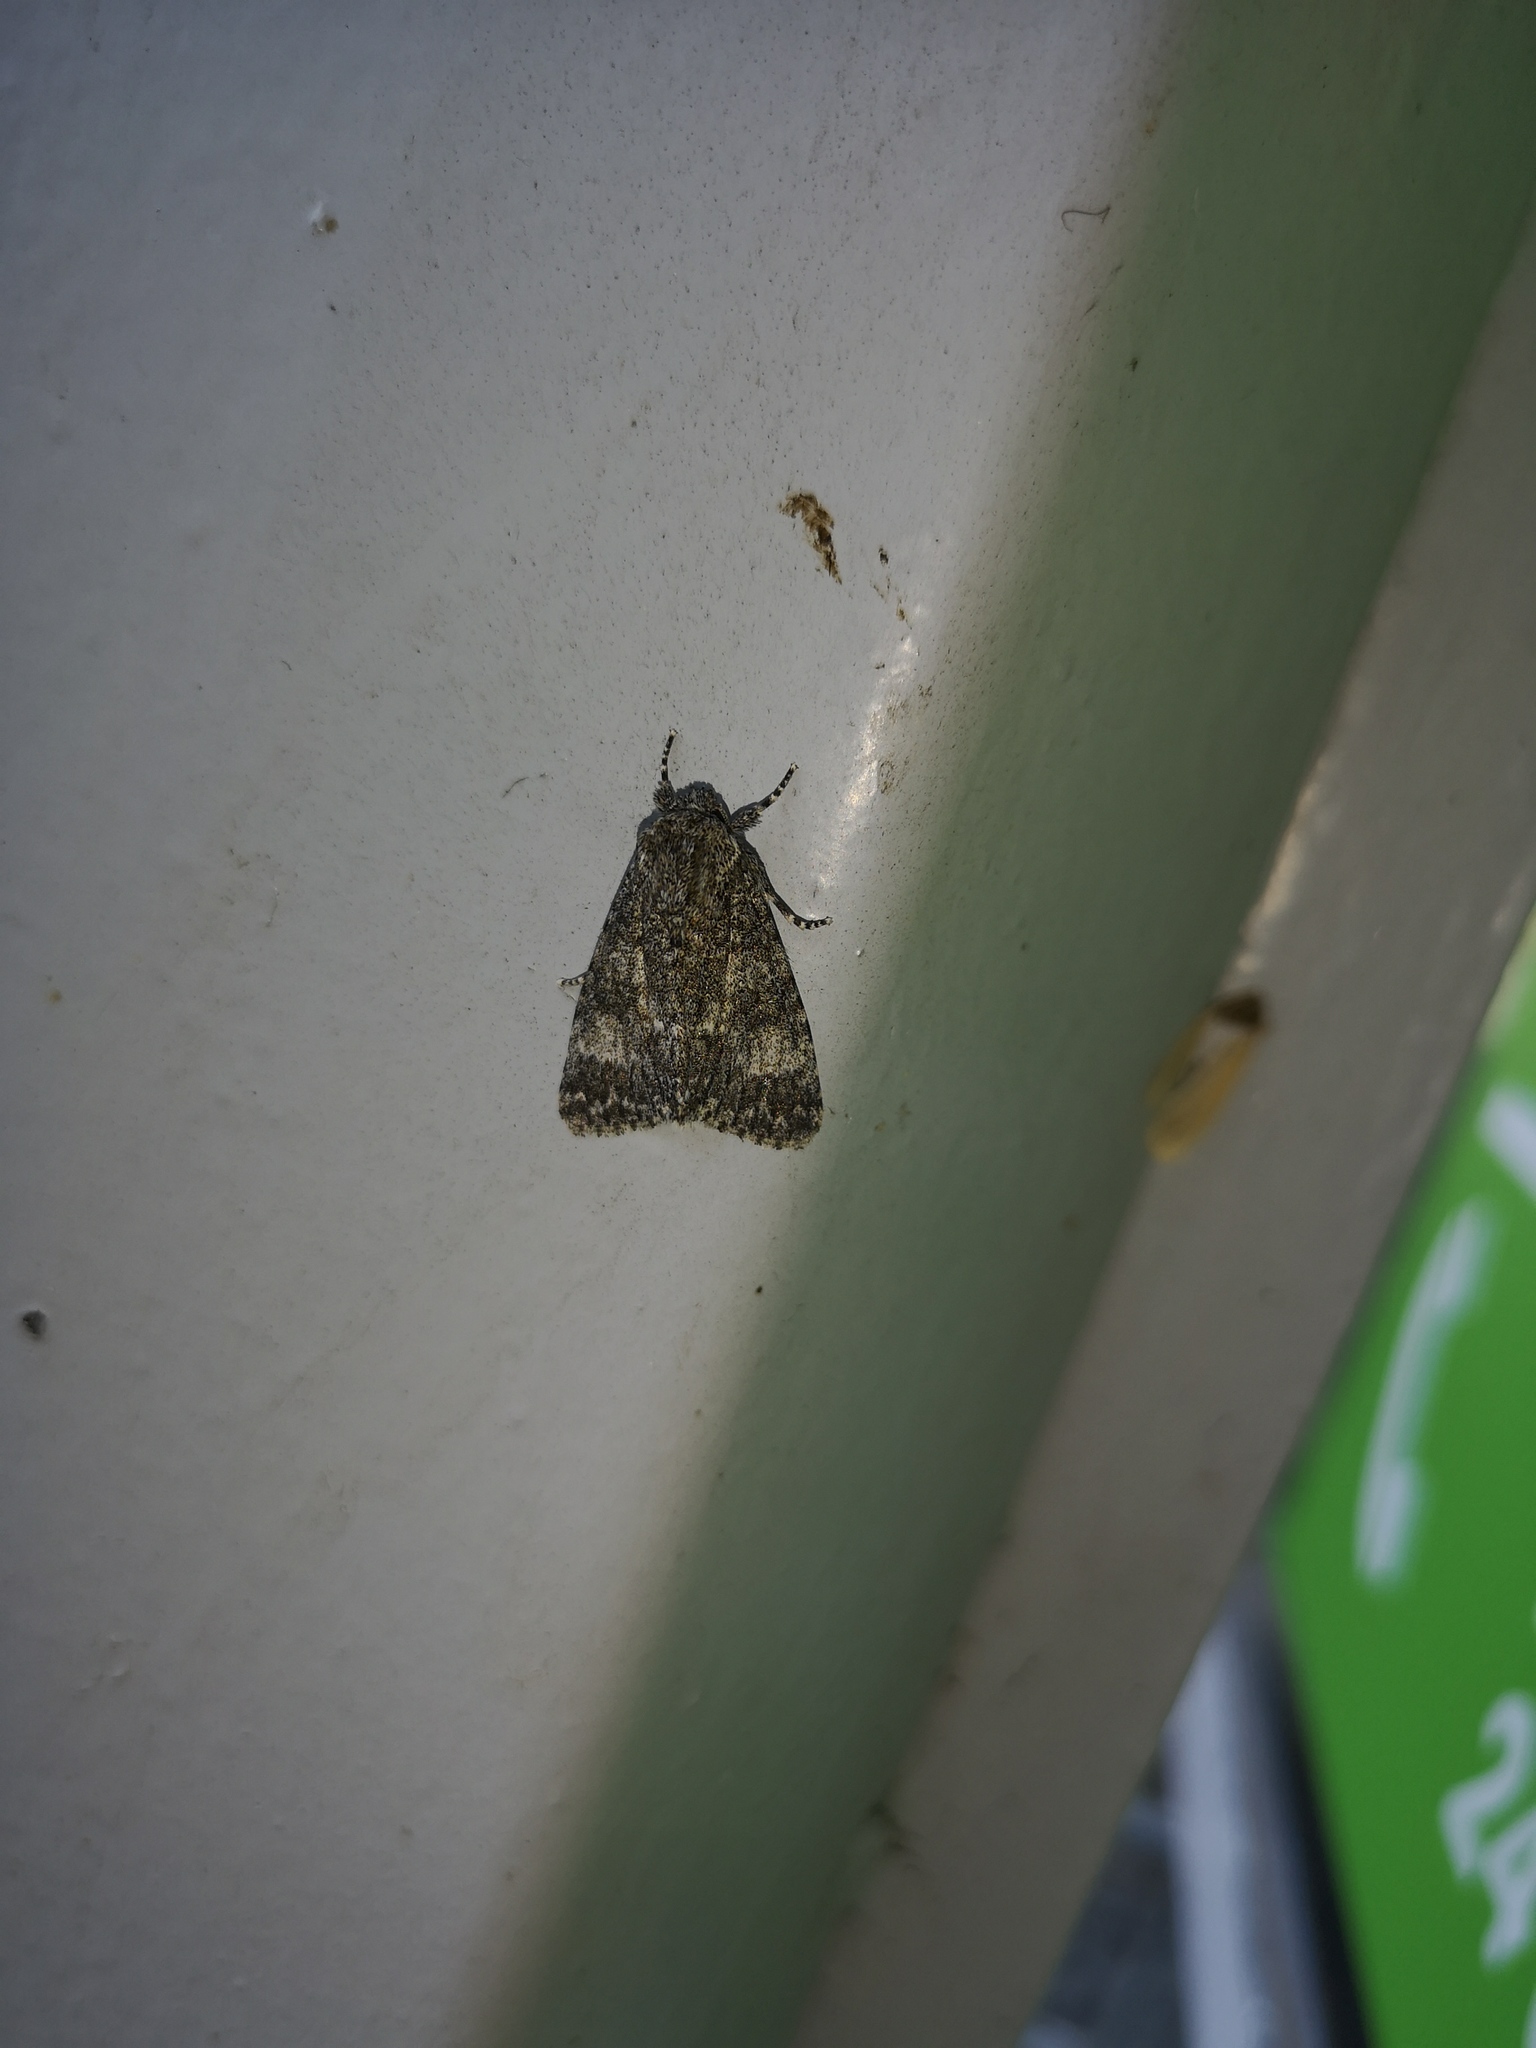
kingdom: Animalia
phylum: Arthropoda
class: Insecta
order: Lepidoptera
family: Noctuidae
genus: Acronicta
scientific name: Acronicta megacephala
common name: Poplar grey
